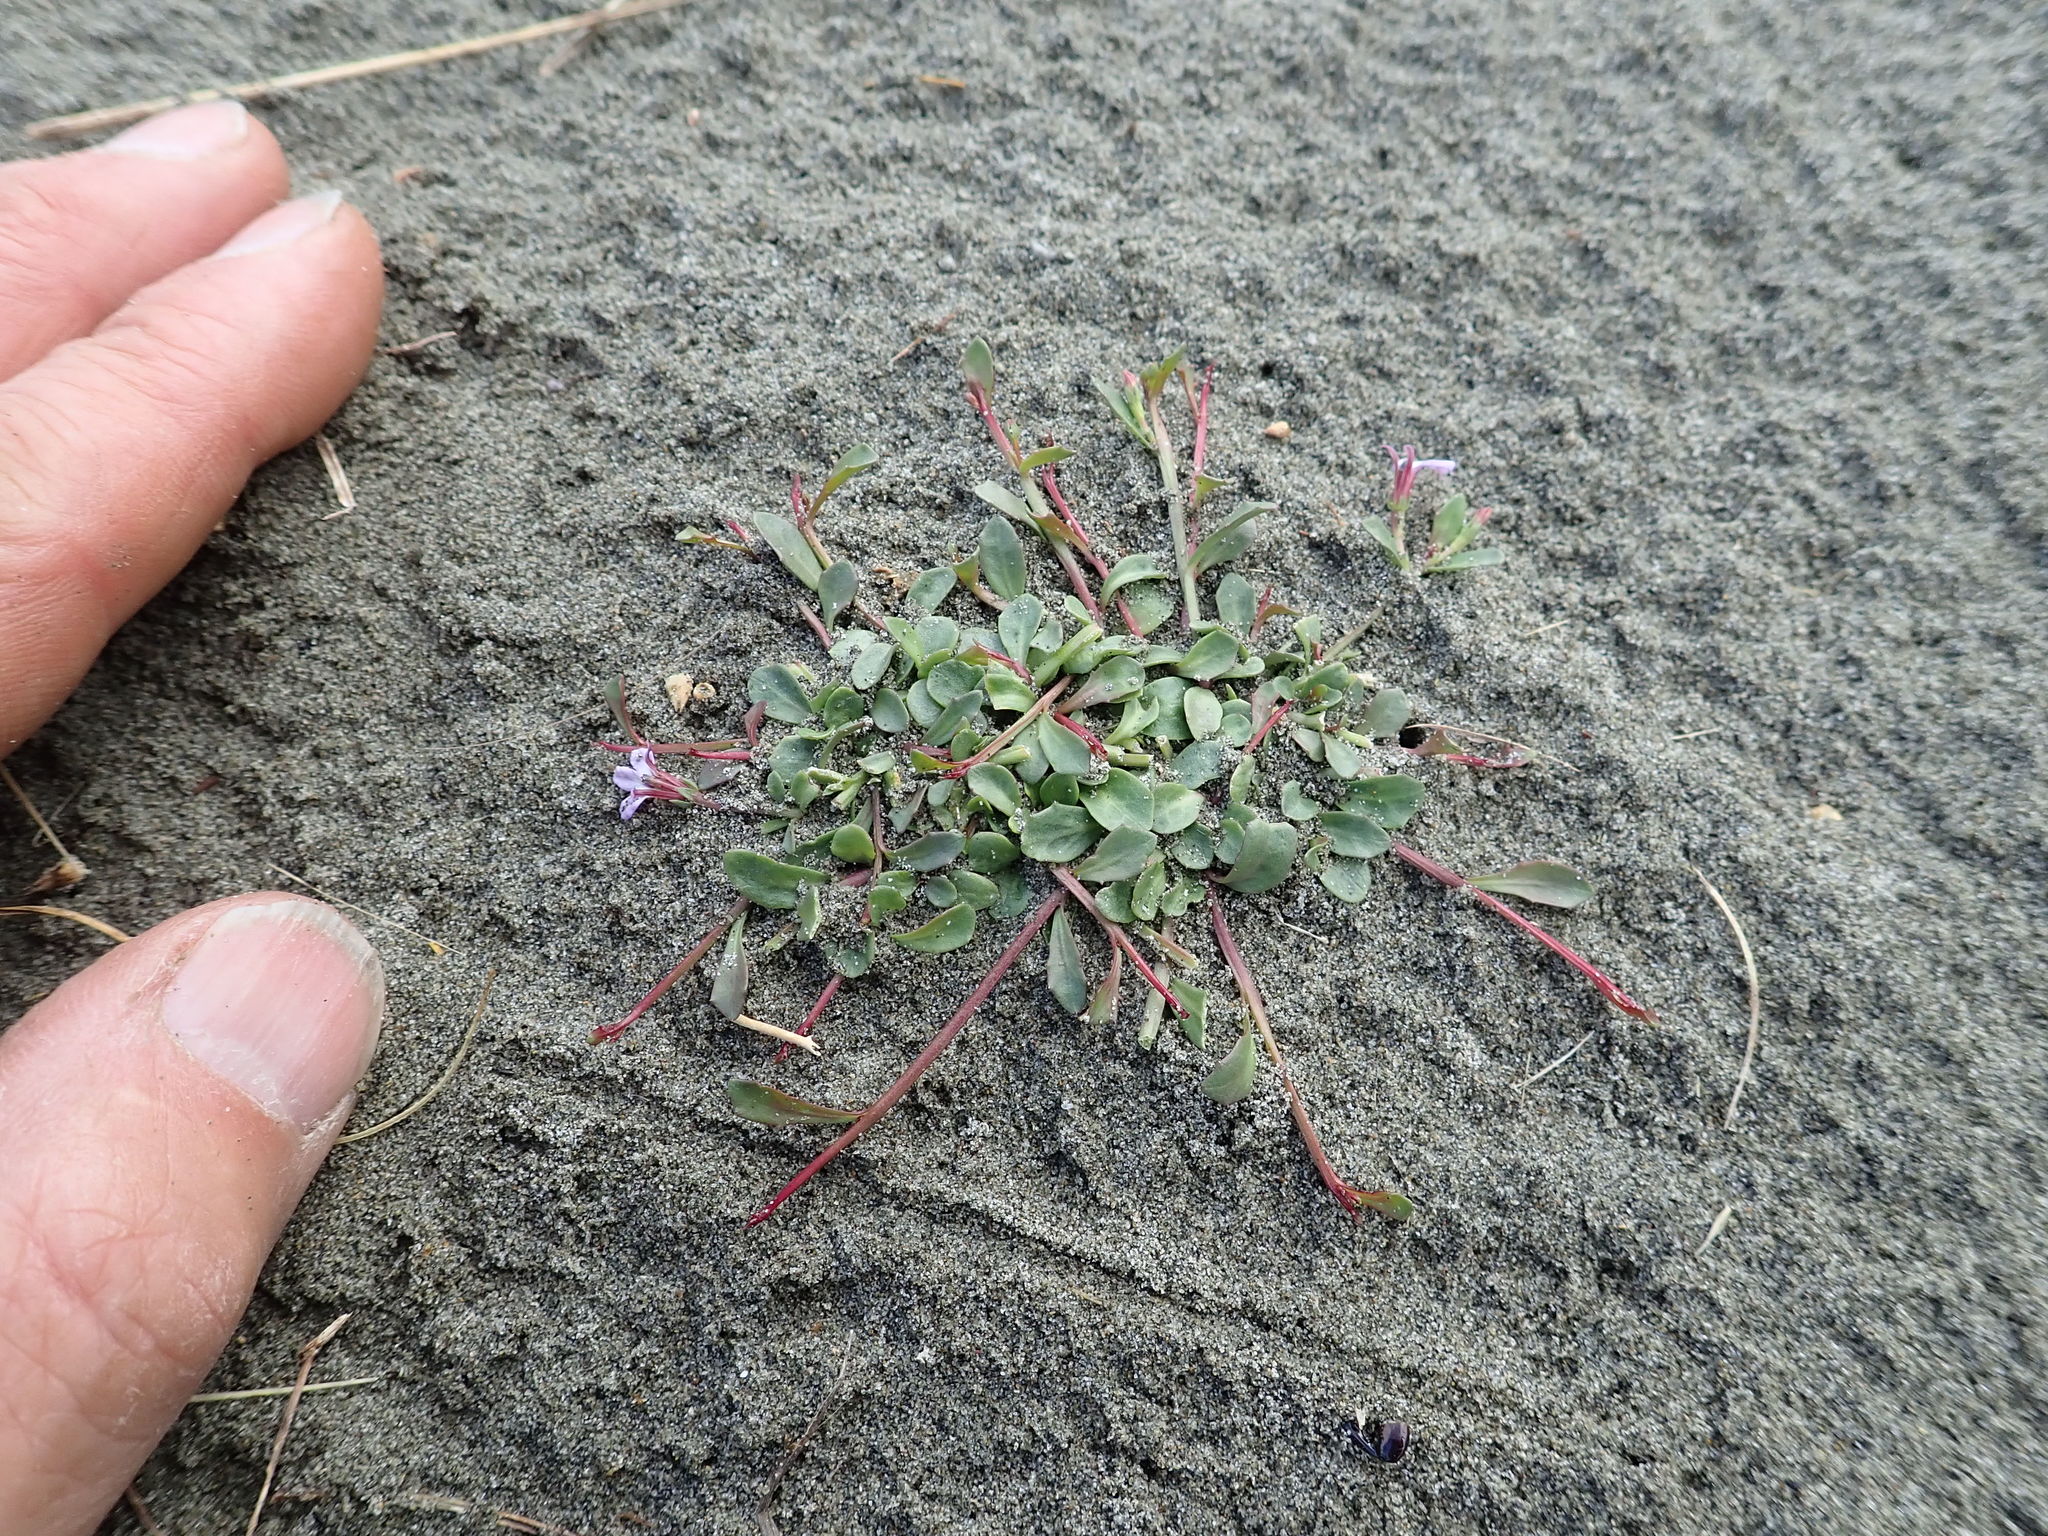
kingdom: Plantae
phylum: Tracheophyta
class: Magnoliopsida
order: Asterales
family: Campanulaceae
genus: Lobelia
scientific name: Lobelia anceps
